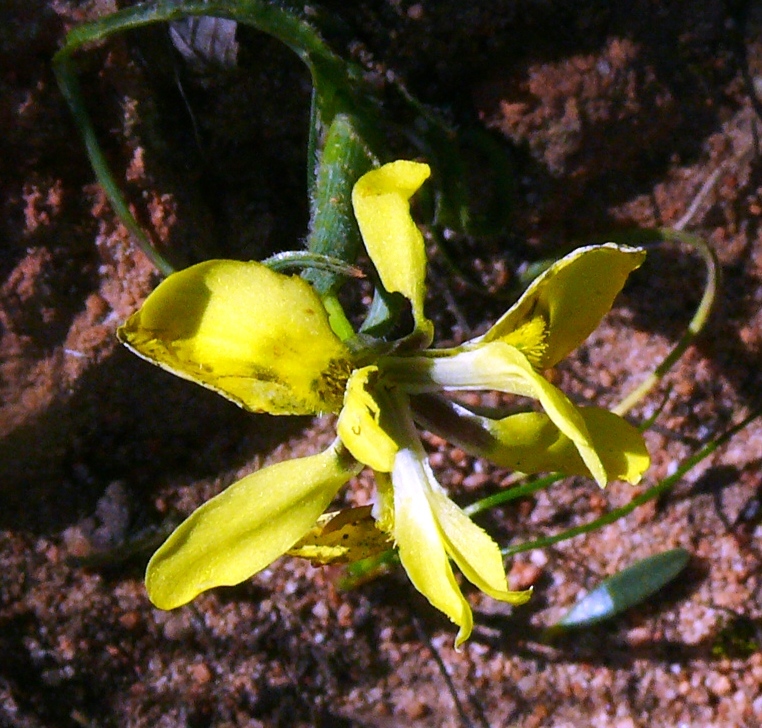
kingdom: Plantae
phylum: Tracheophyta
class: Liliopsida
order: Asparagales
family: Iridaceae
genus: Moraea
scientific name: Moraea ciliata
